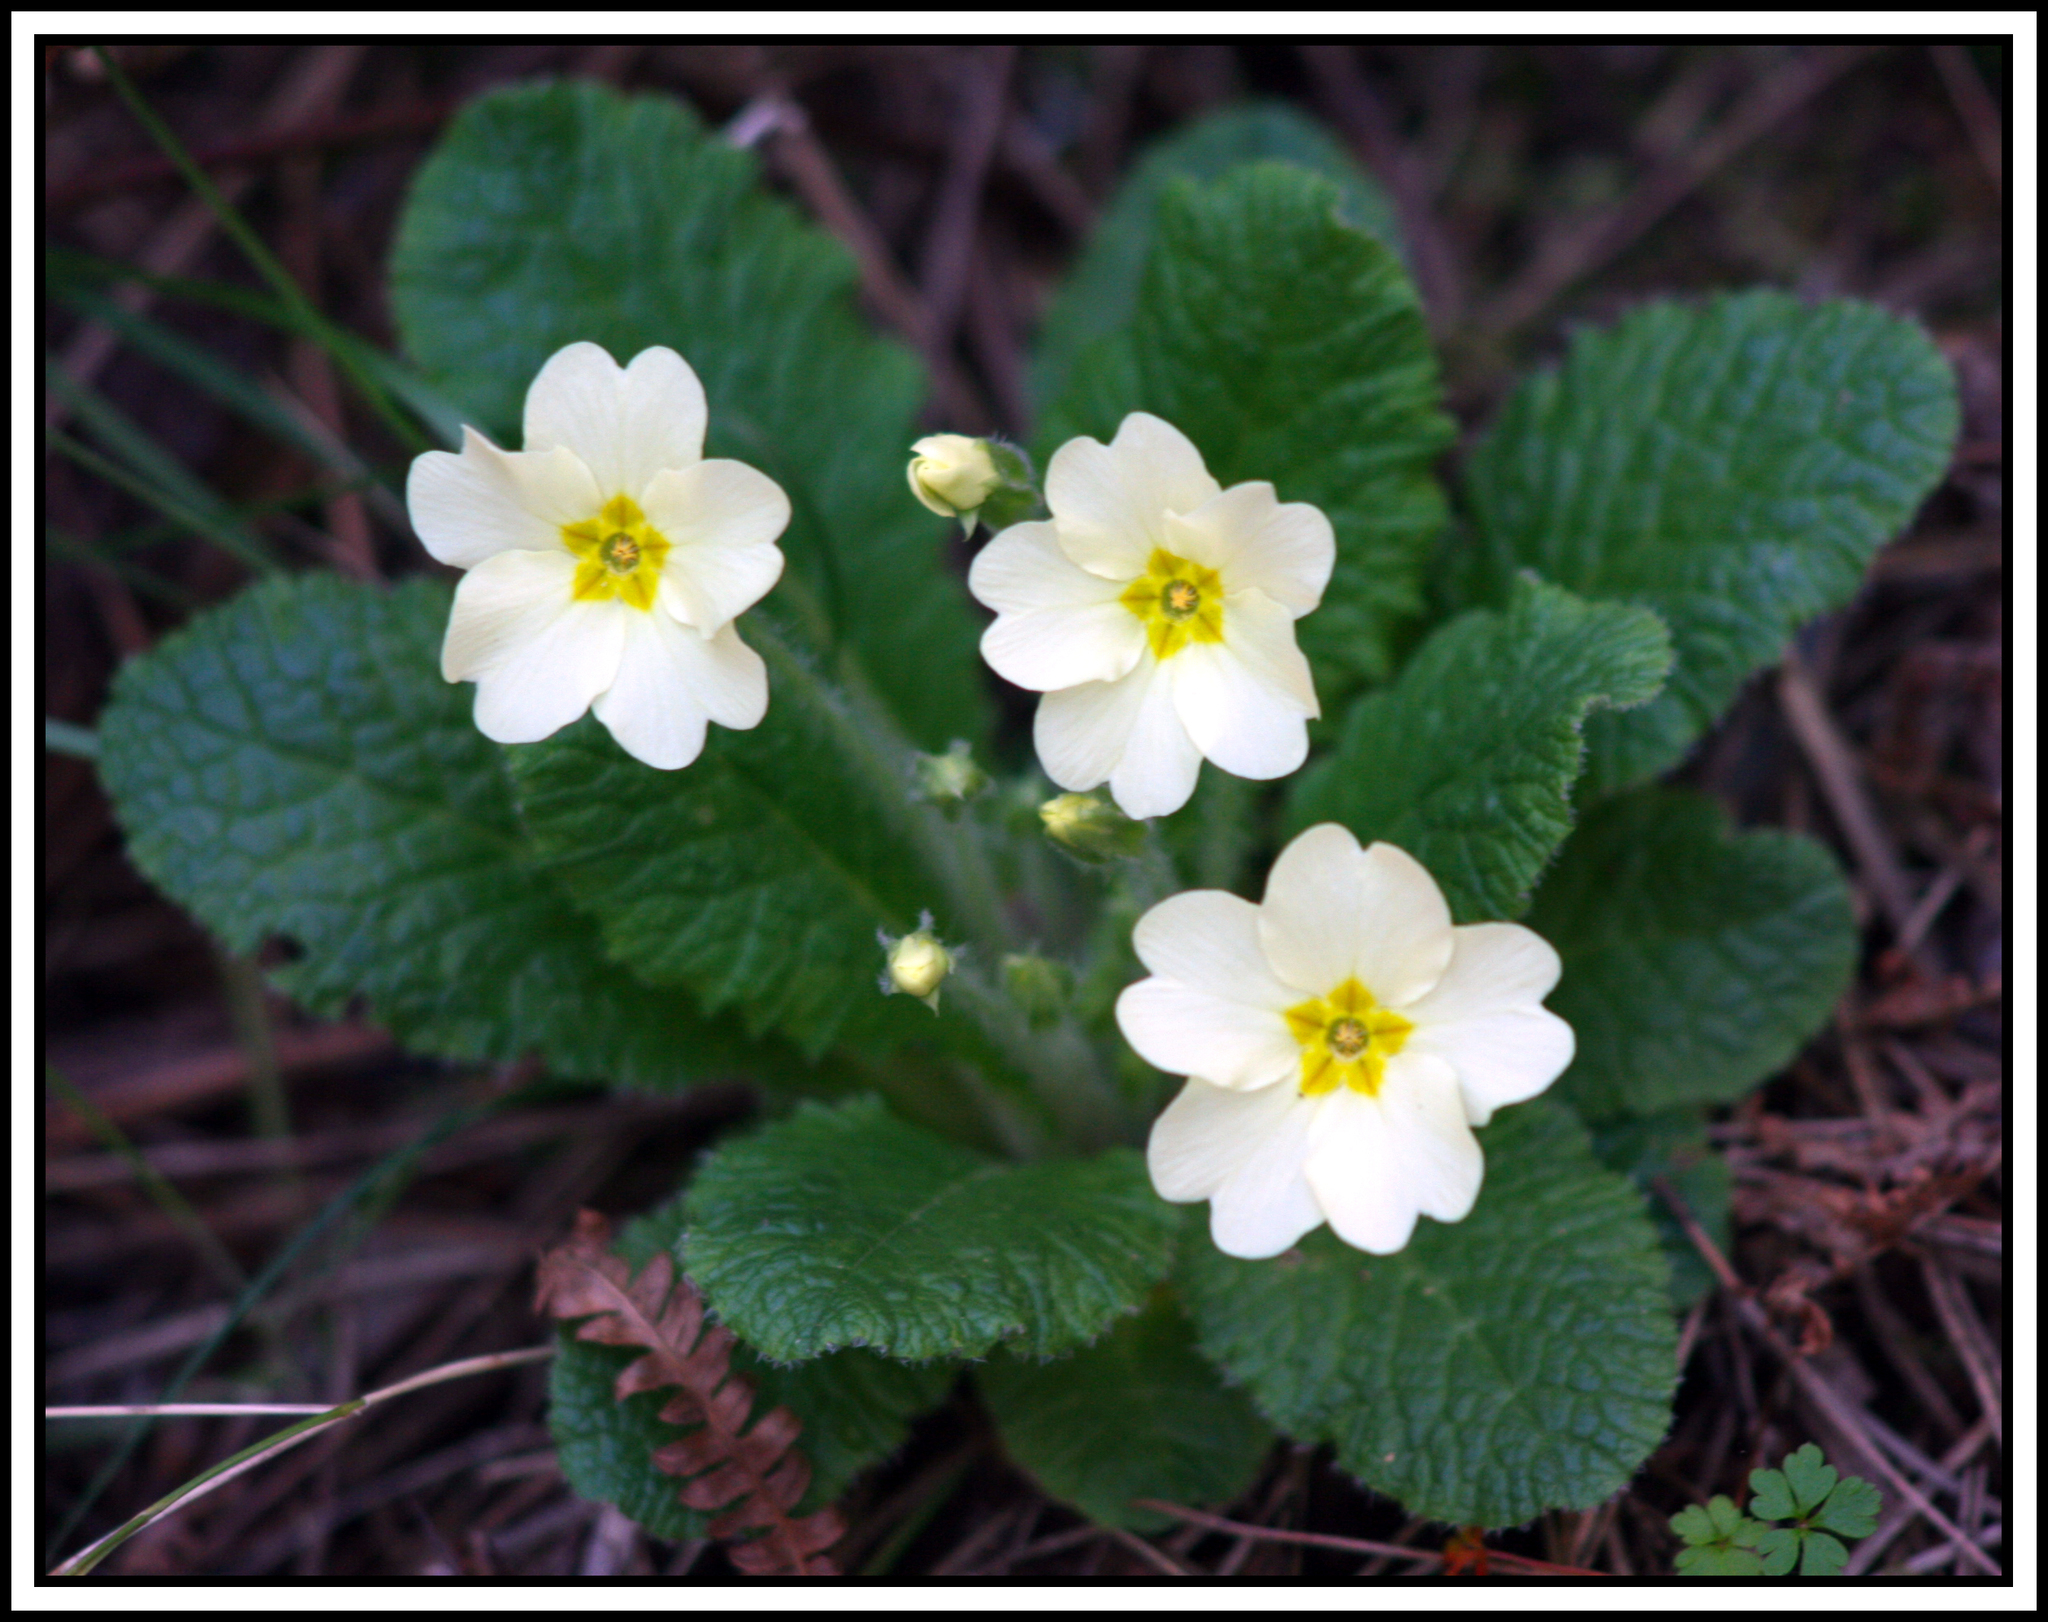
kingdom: Plantae
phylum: Tracheophyta
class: Magnoliopsida
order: Ericales
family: Primulaceae
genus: Primula
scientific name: Primula vulgaris
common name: Primrose
